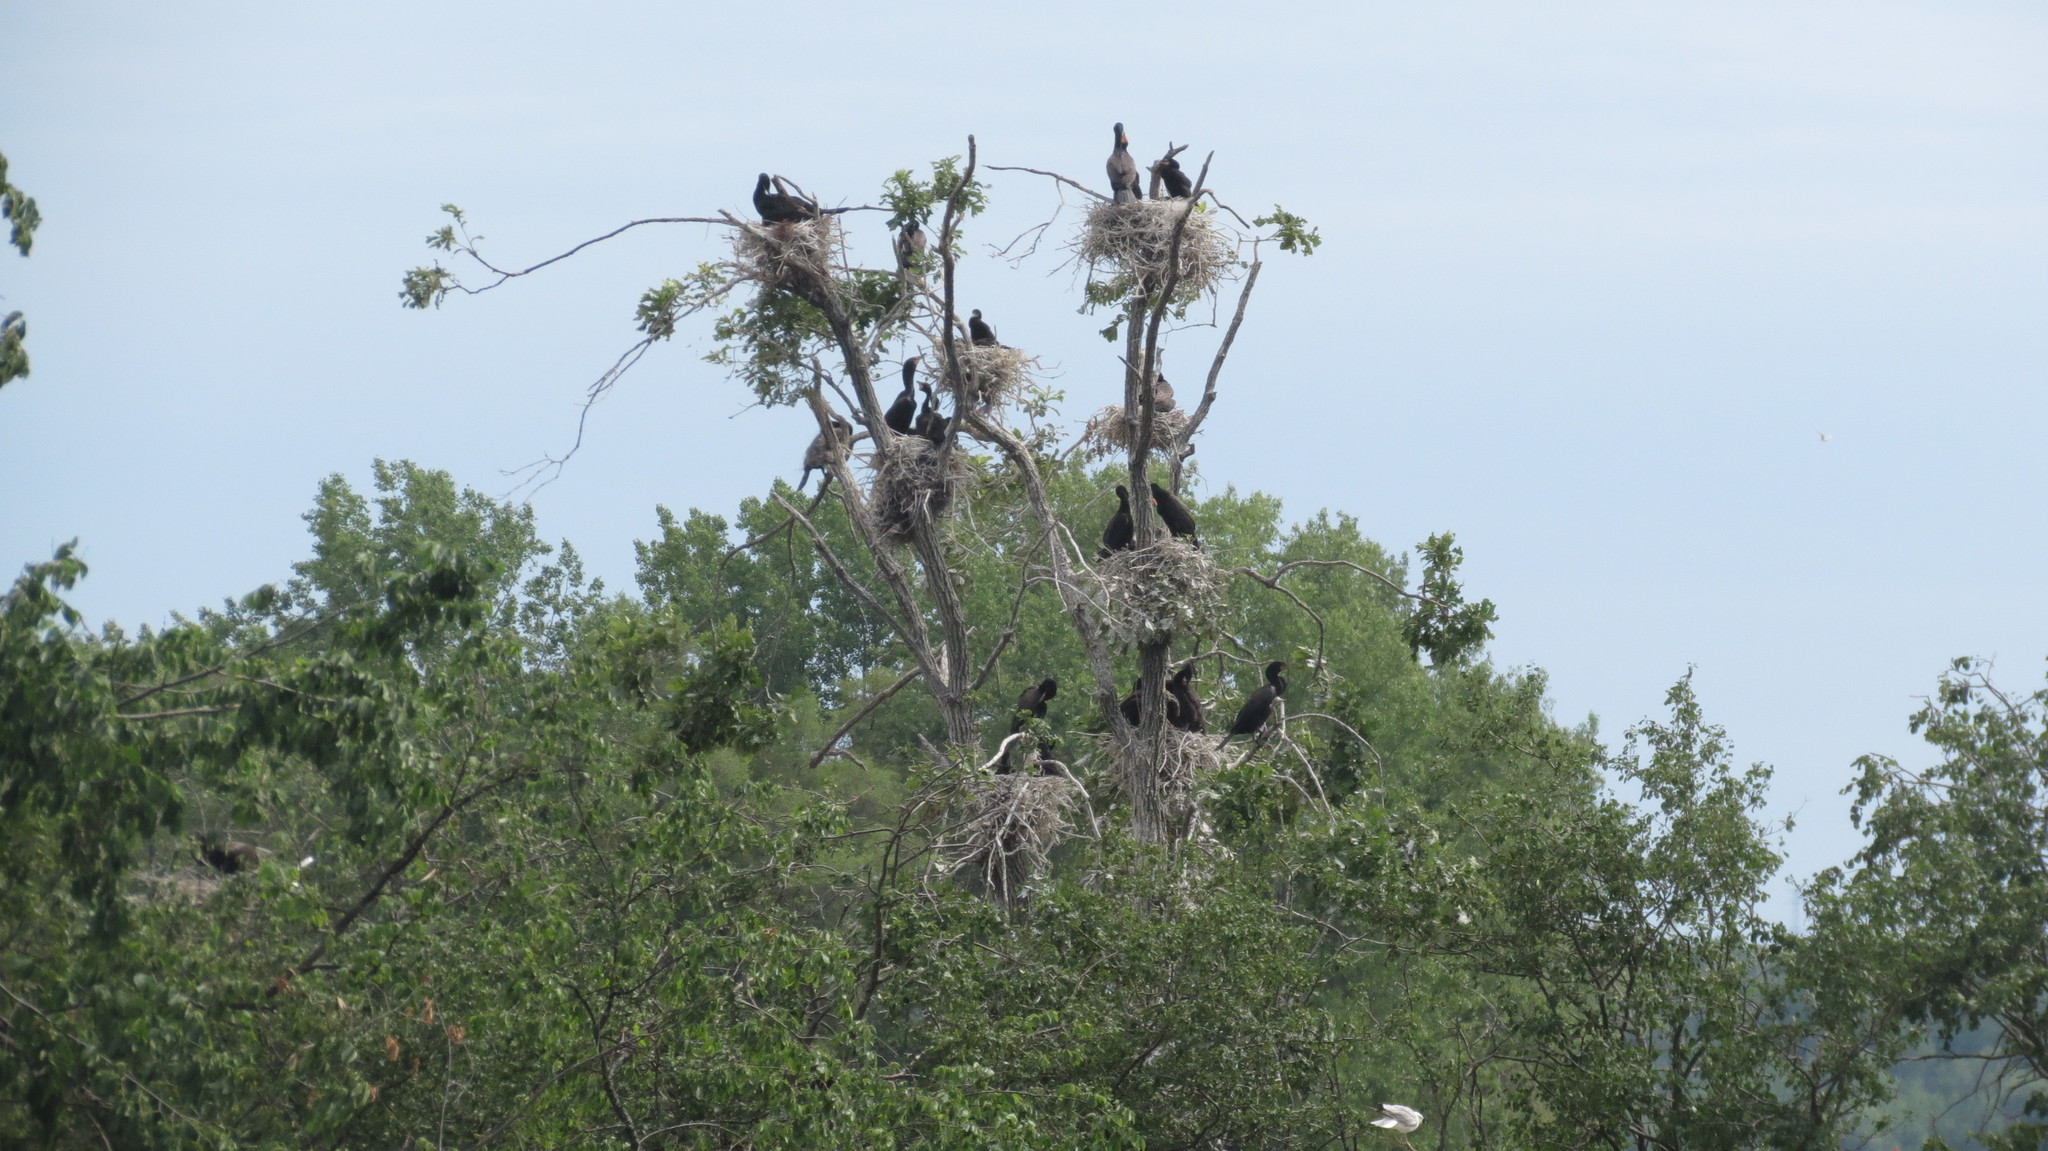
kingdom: Animalia
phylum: Chordata
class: Aves
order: Suliformes
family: Phalacrocoracidae
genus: Phalacrocorax
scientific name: Phalacrocorax auritus
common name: Double-crested cormorant
